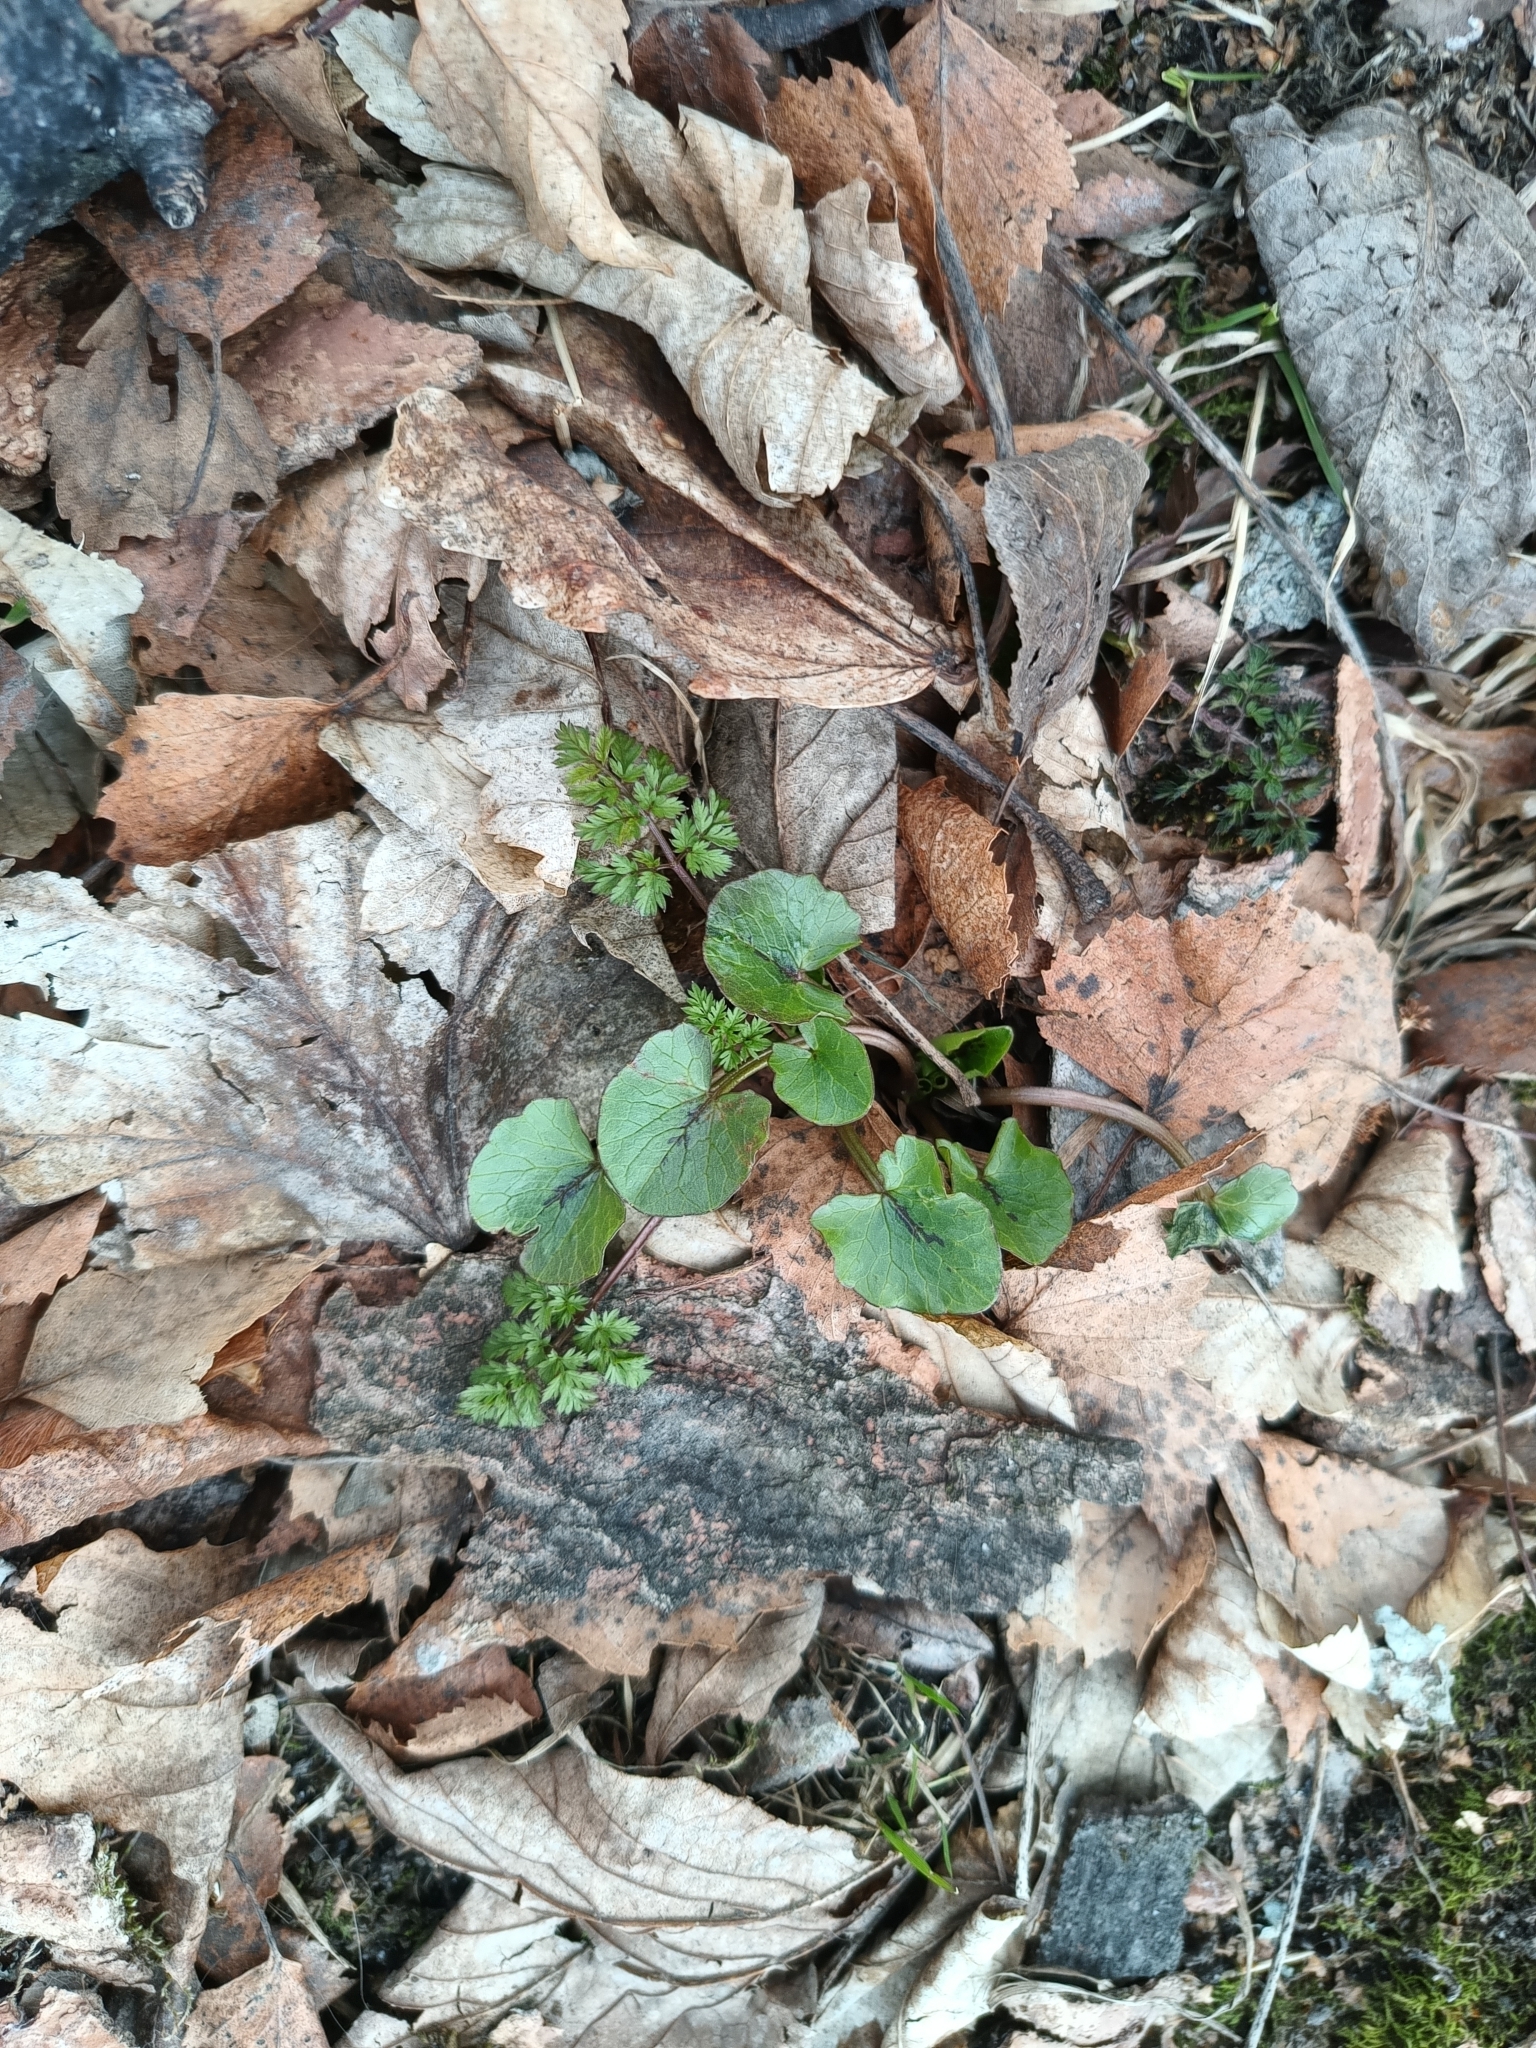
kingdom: Plantae
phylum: Tracheophyta
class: Magnoliopsida
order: Ranunculales
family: Ranunculaceae
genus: Ficaria
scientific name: Ficaria verna
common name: Lesser celandine
